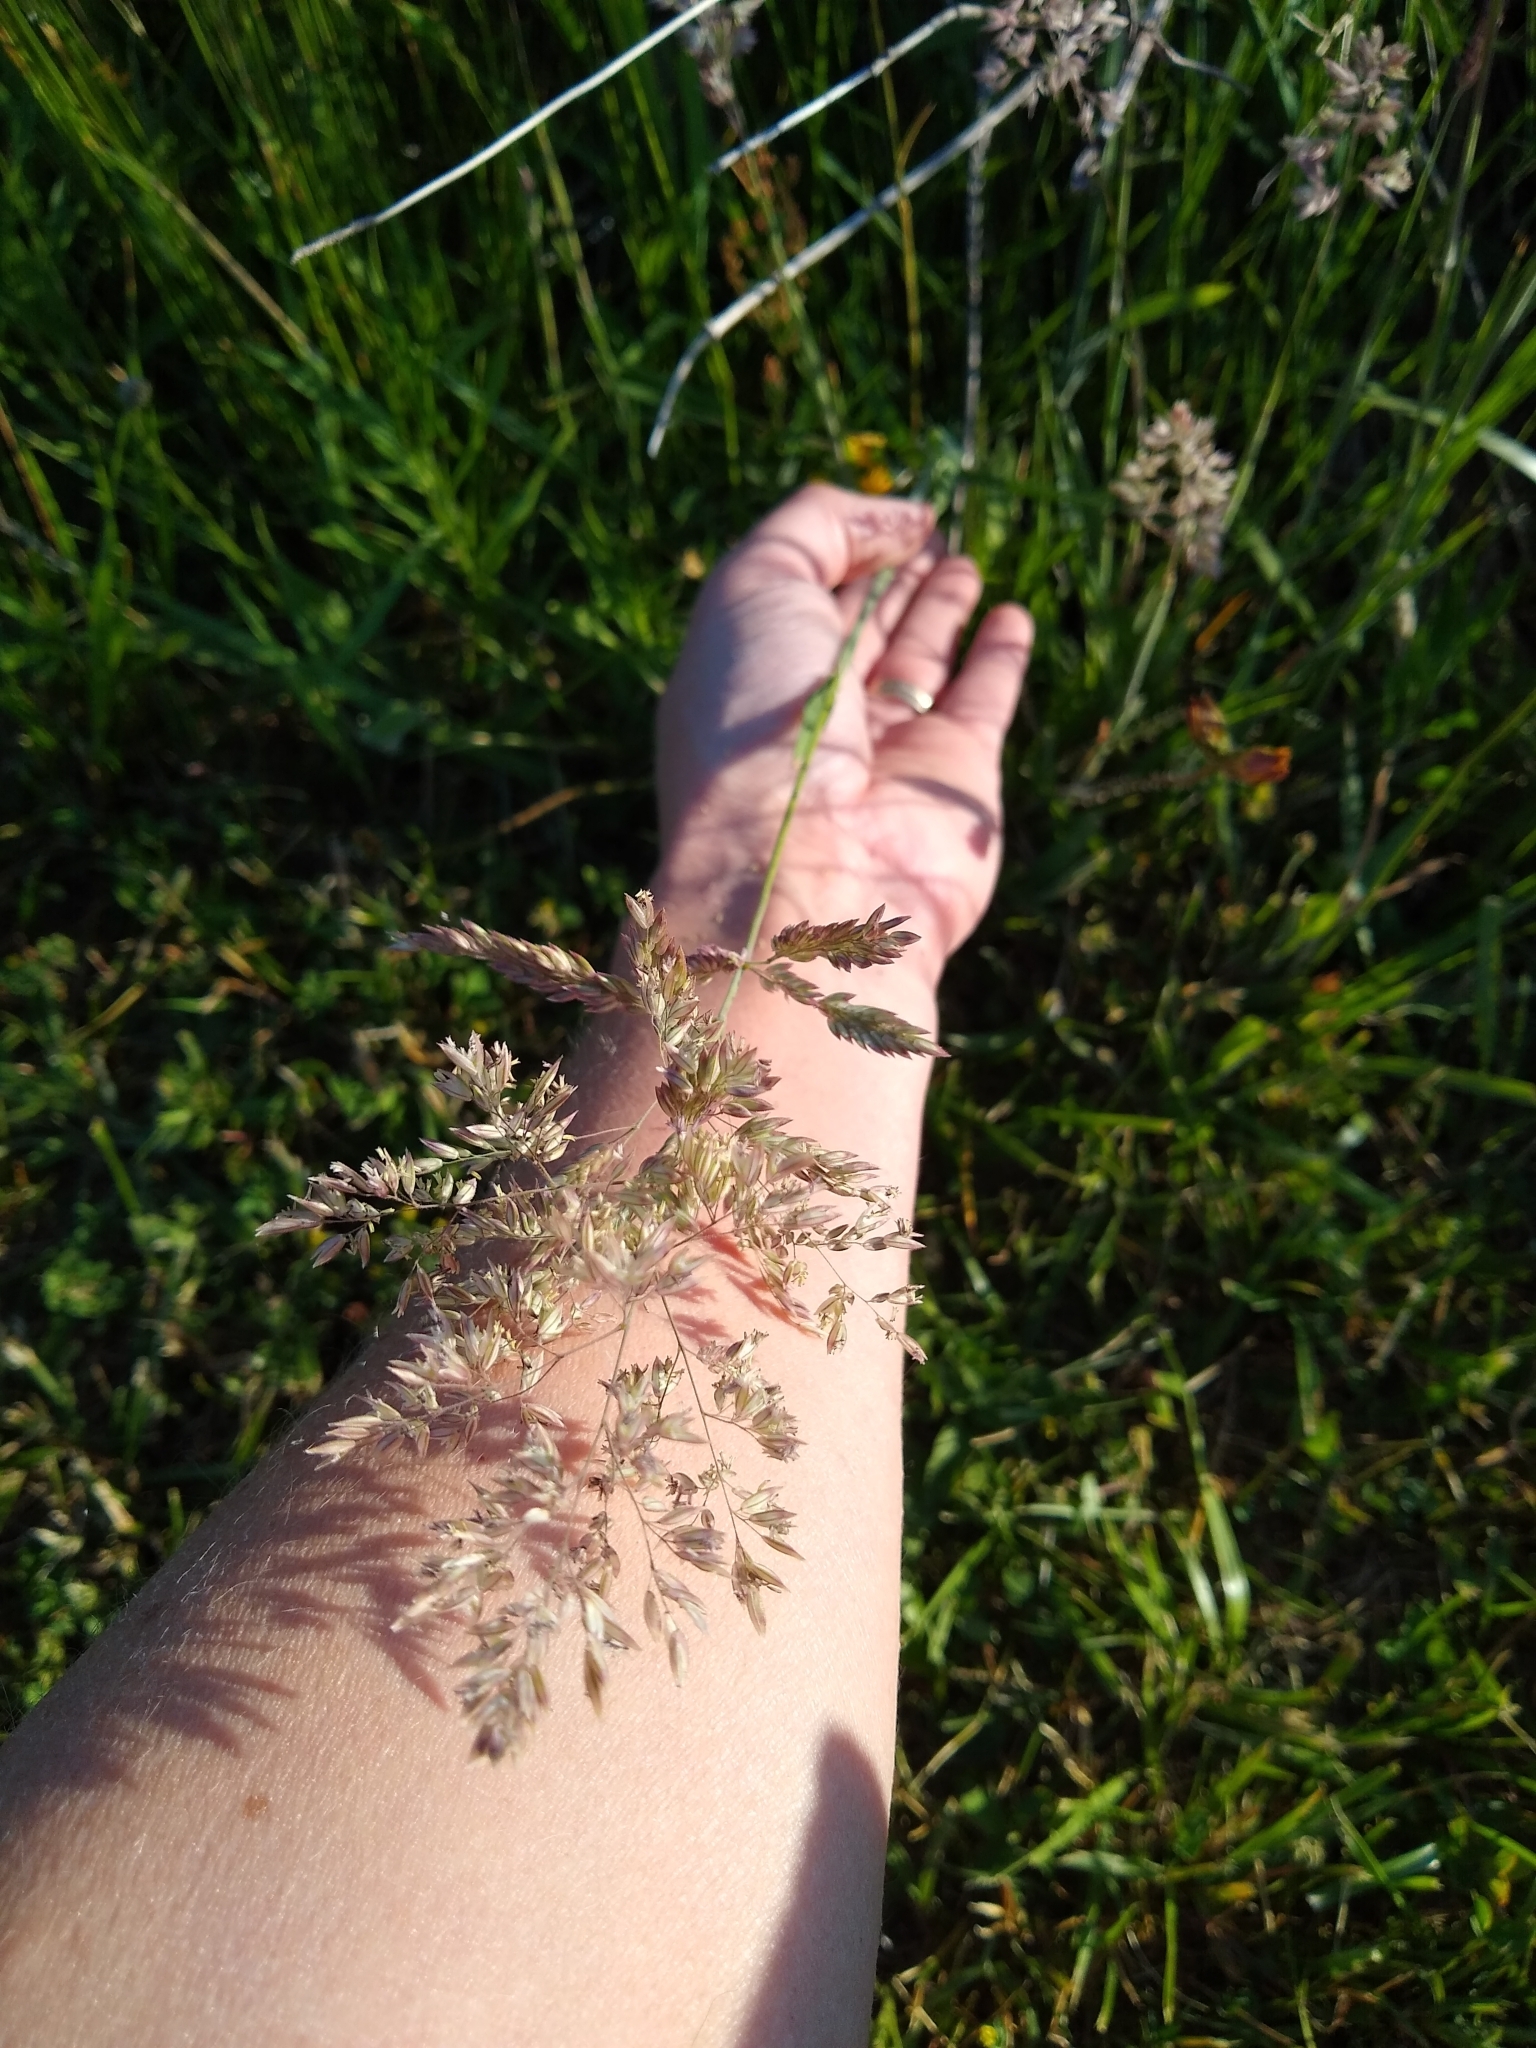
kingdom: Plantae
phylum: Tracheophyta
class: Liliopsida
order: Poales
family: Poaceae
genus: Holcus
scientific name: Holcus lanatus
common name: Yorkshire-fog
